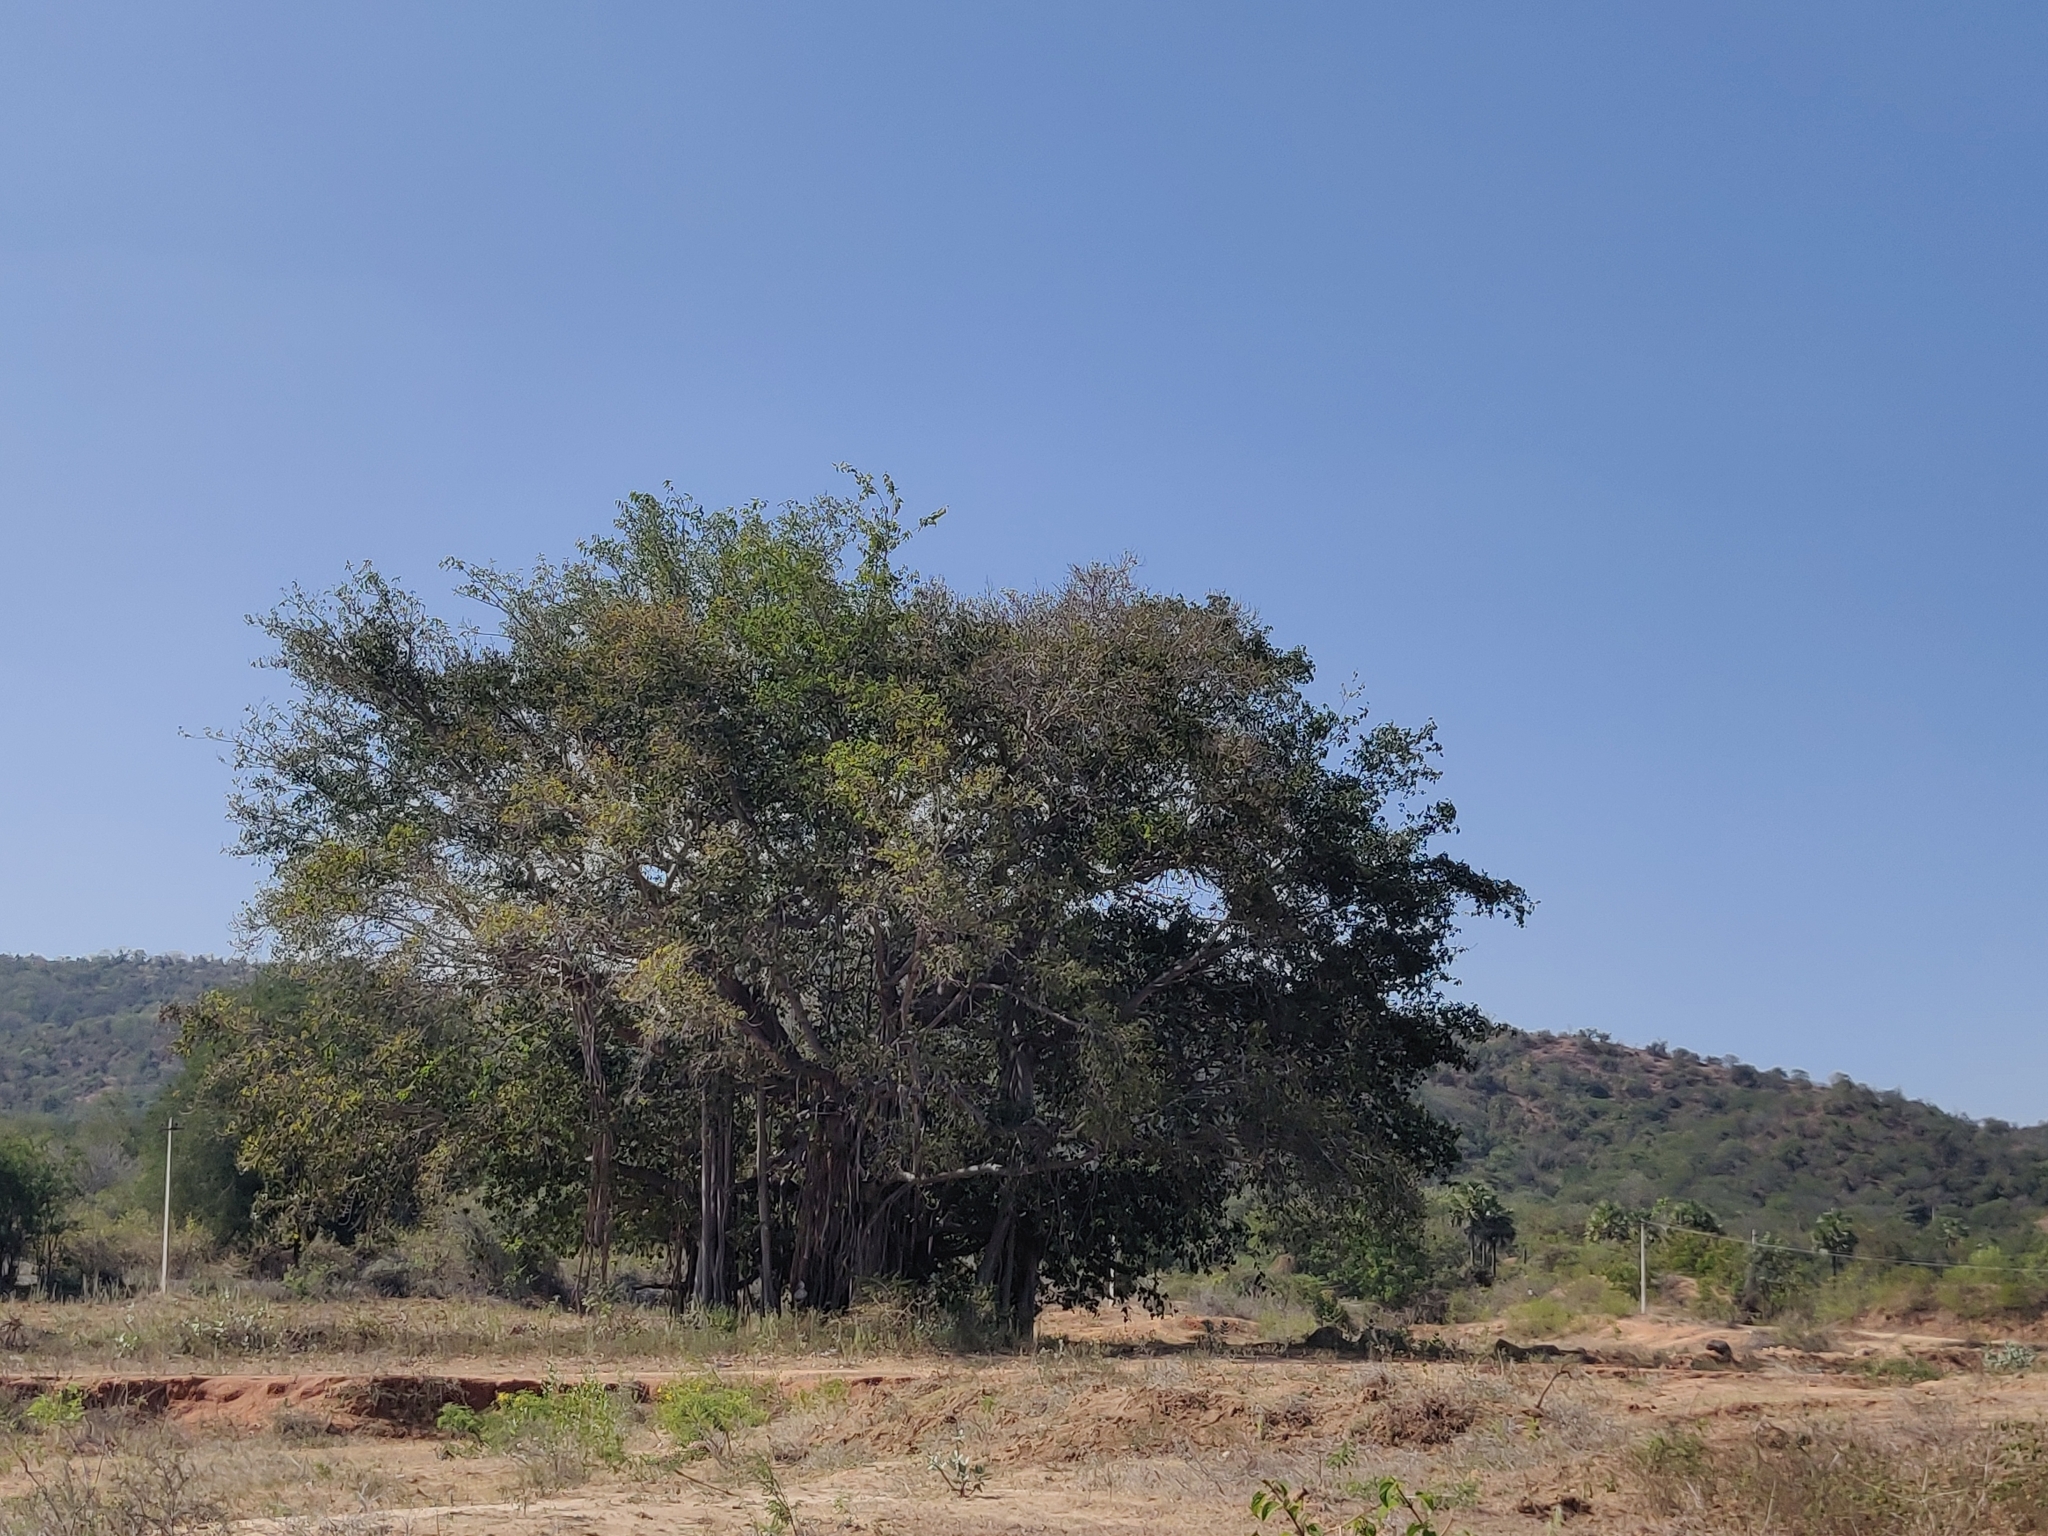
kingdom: Plantae
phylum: Tracheophyta
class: Magnoliopsida
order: Rosales
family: Moraceae
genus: Ficus
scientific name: Ficus benghalensis
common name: Indian banyan
